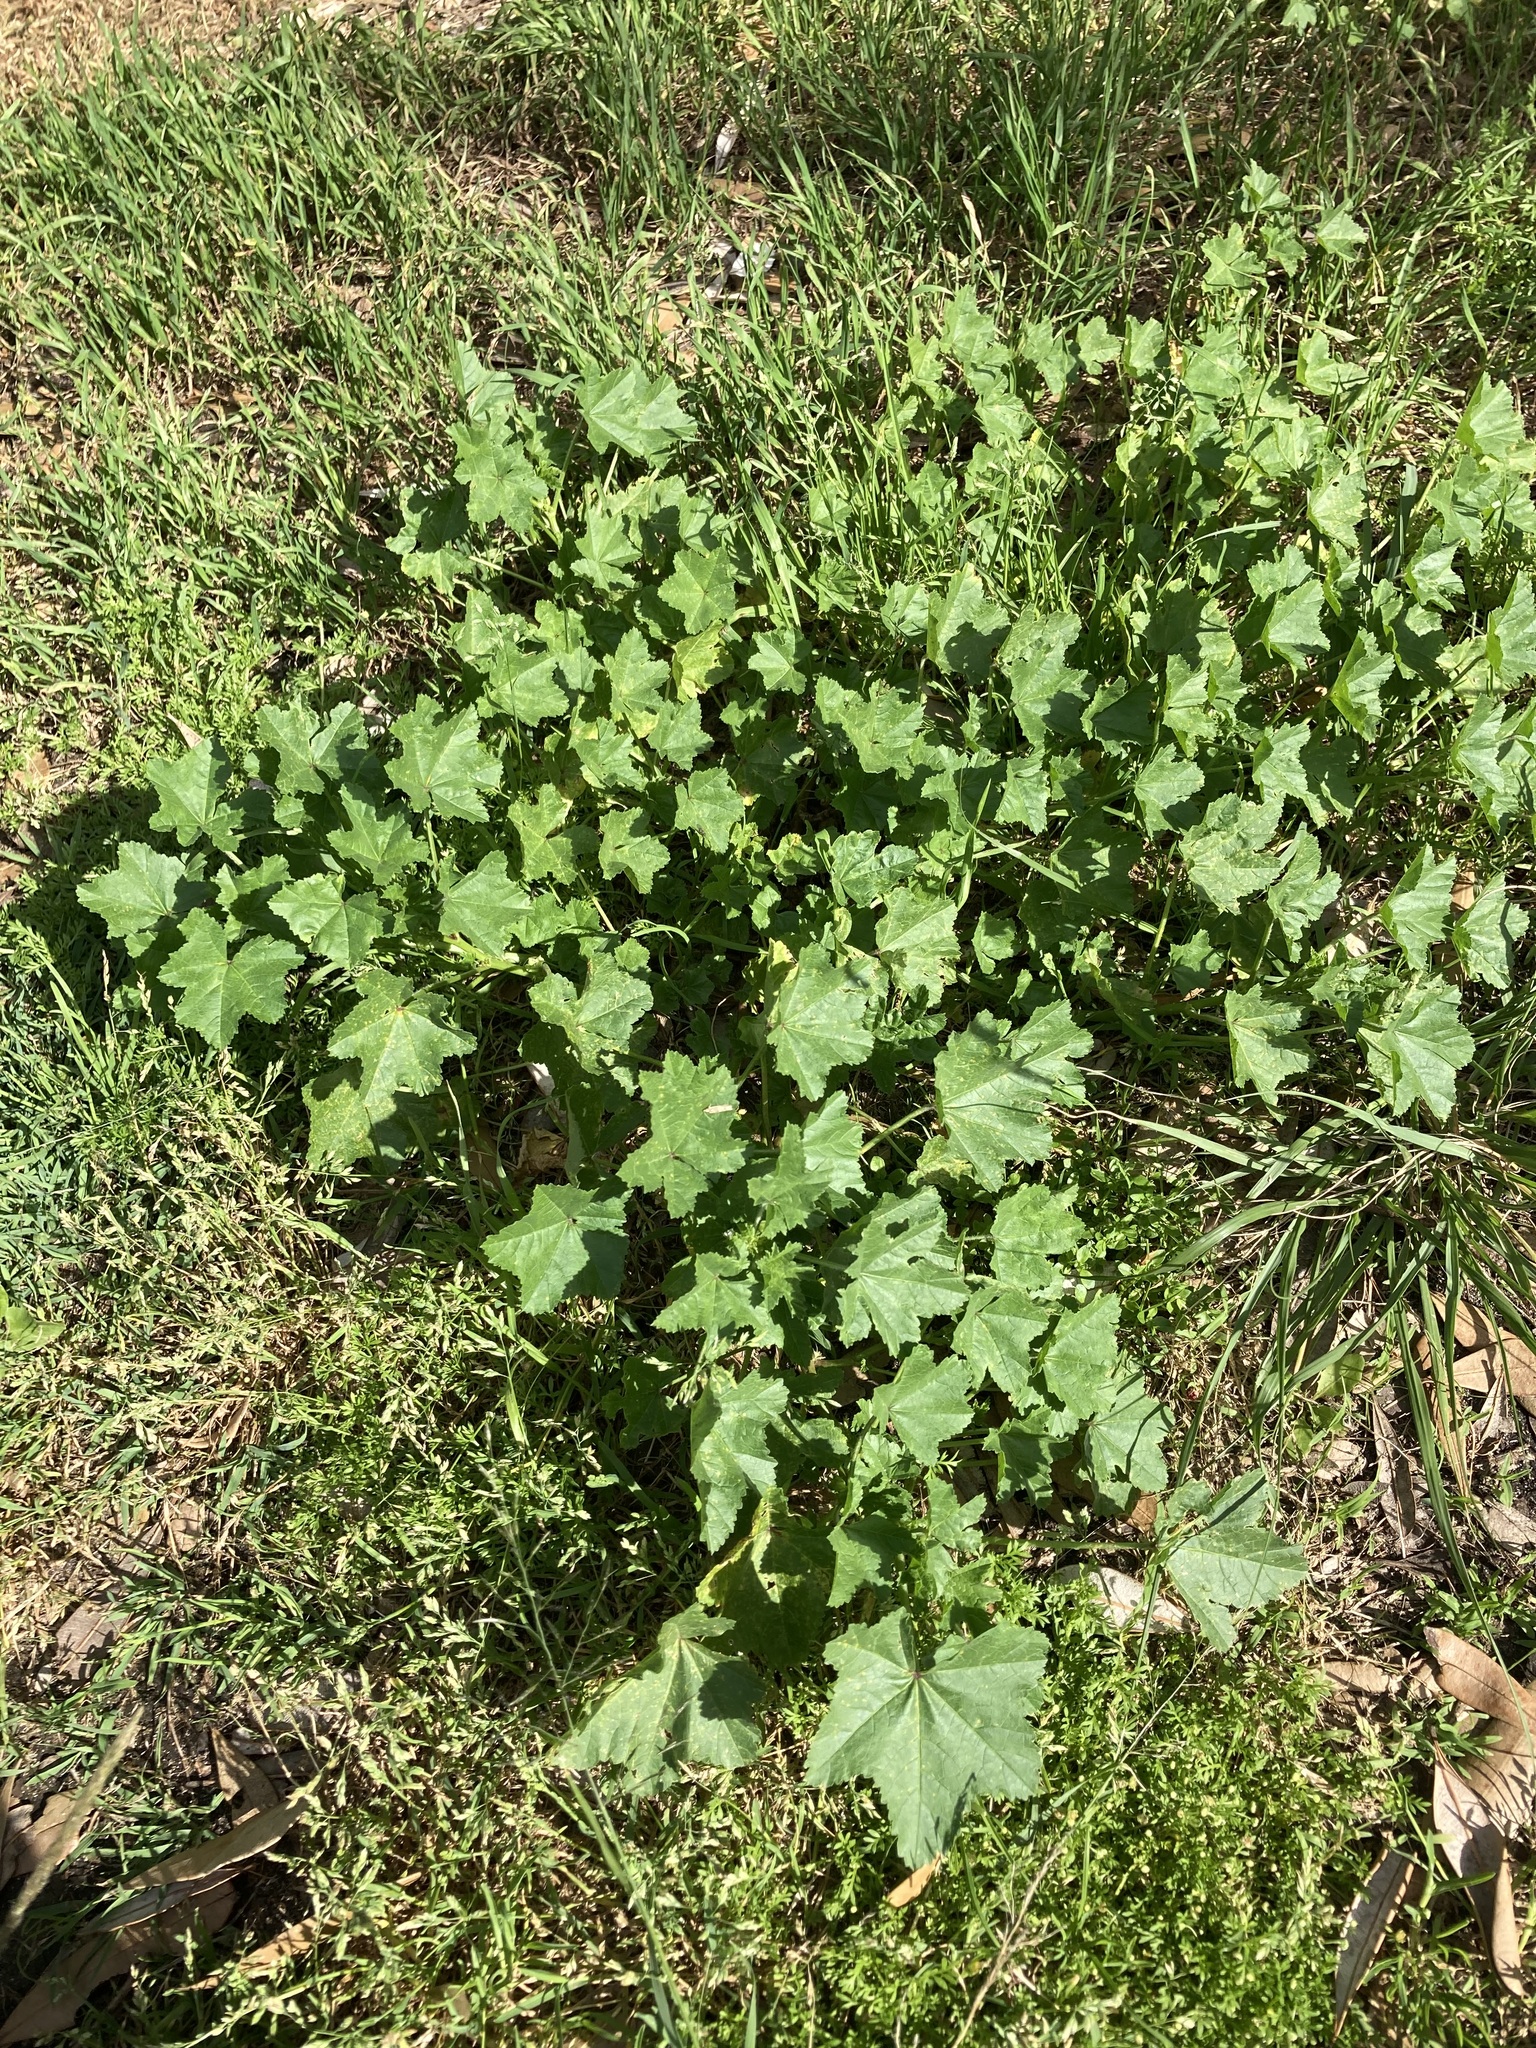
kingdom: Plantae
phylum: Tracheophyta
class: Magnoliopsida
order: Malvales
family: Malvaceae
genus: Malva
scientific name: Malva parviflora
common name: Least mallow
